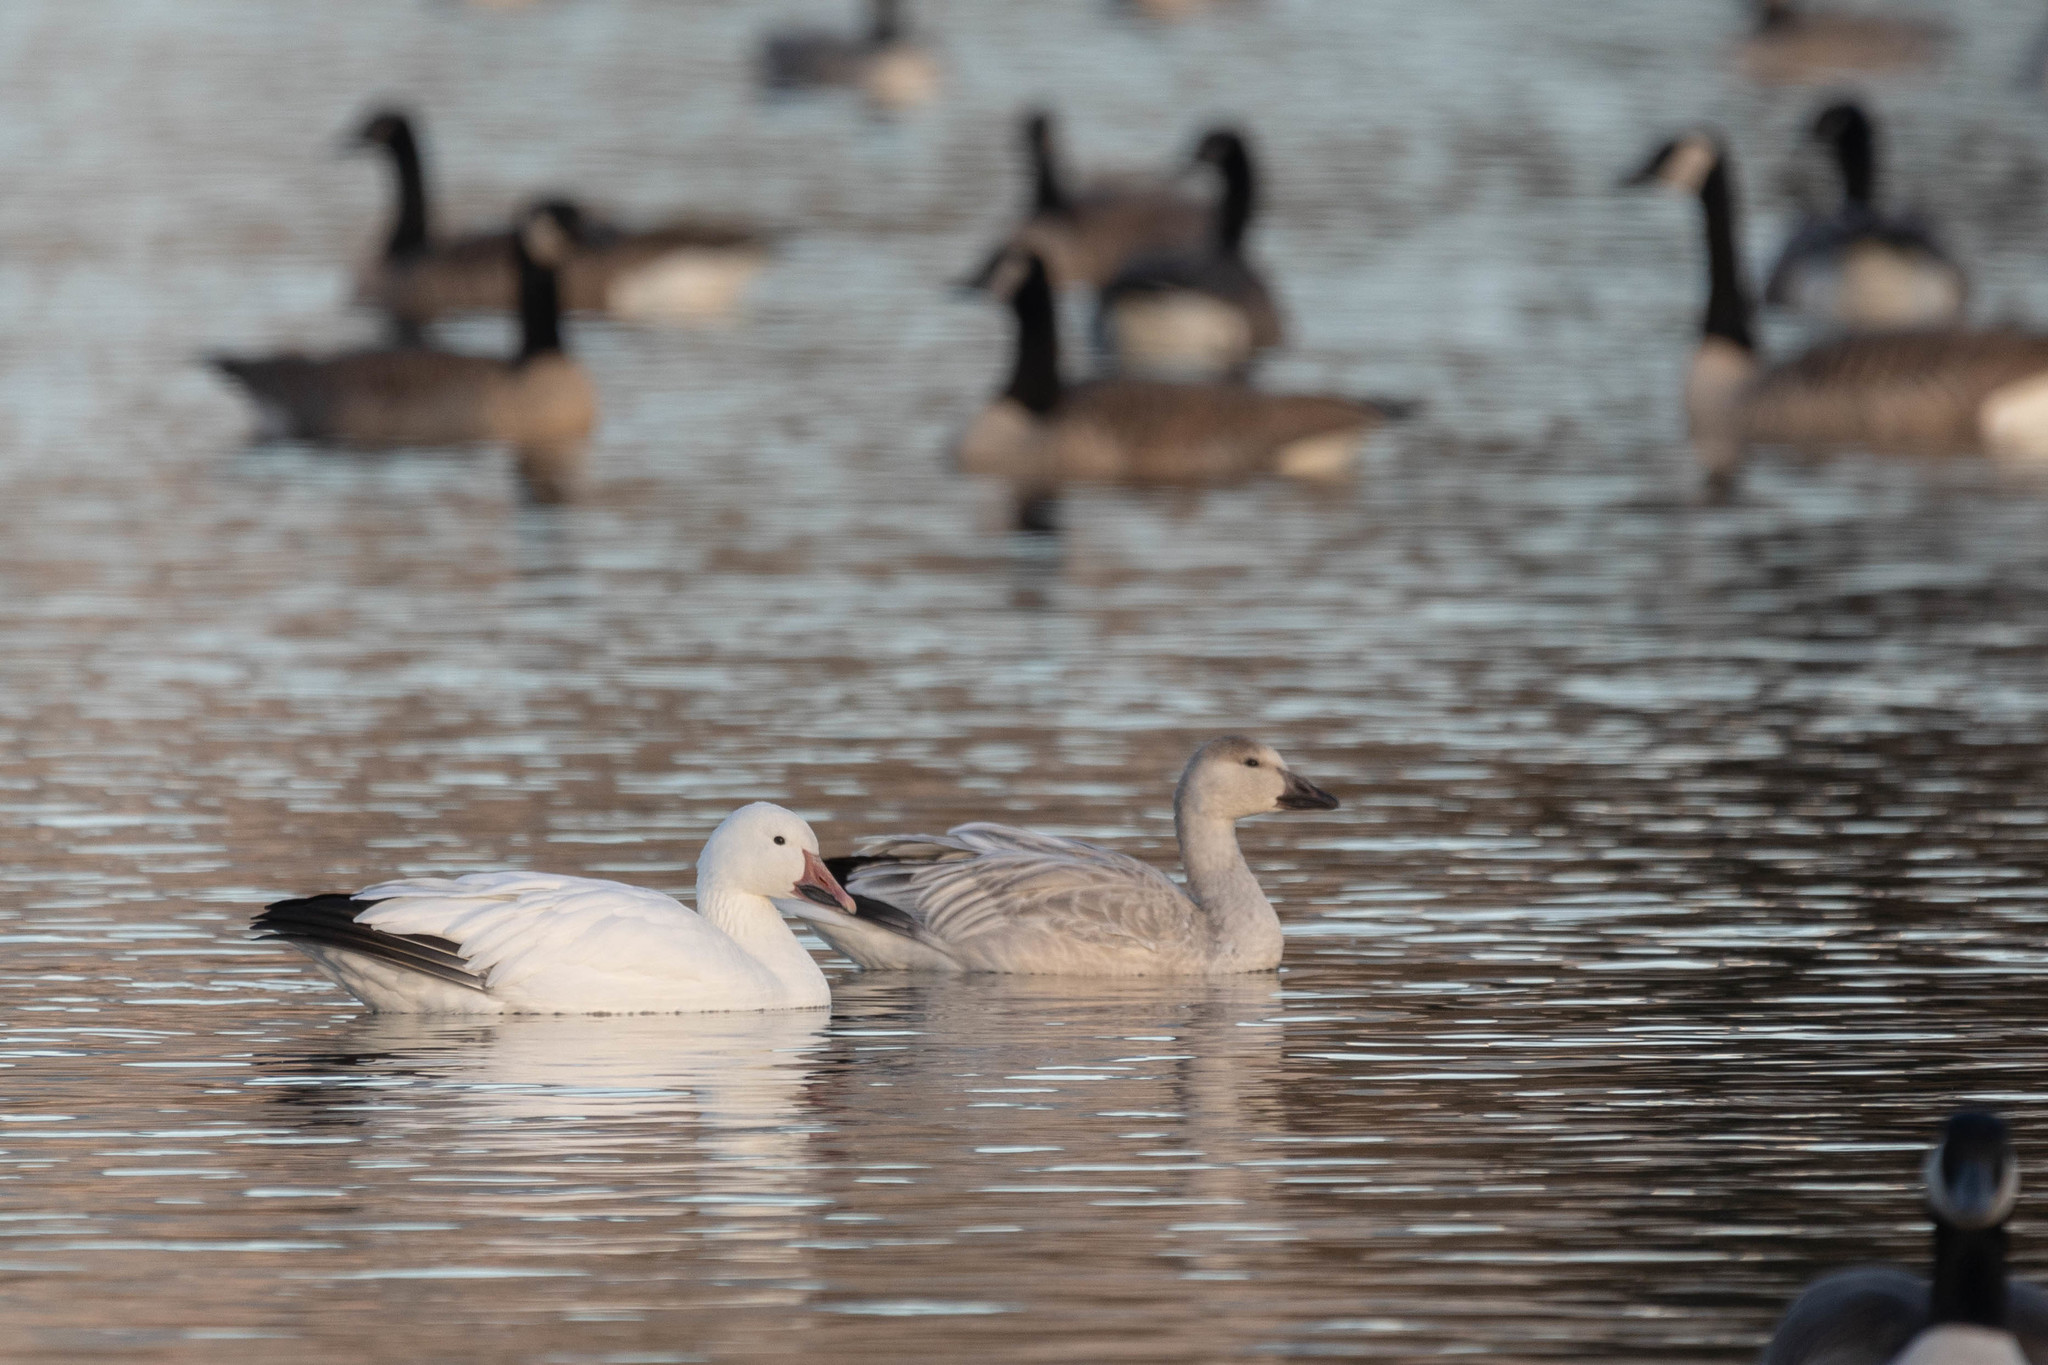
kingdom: Animalia
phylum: Chordata
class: Aves
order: Anseriformes
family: Anatidae
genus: Anser
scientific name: Anser caerulescens
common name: Snow goose
